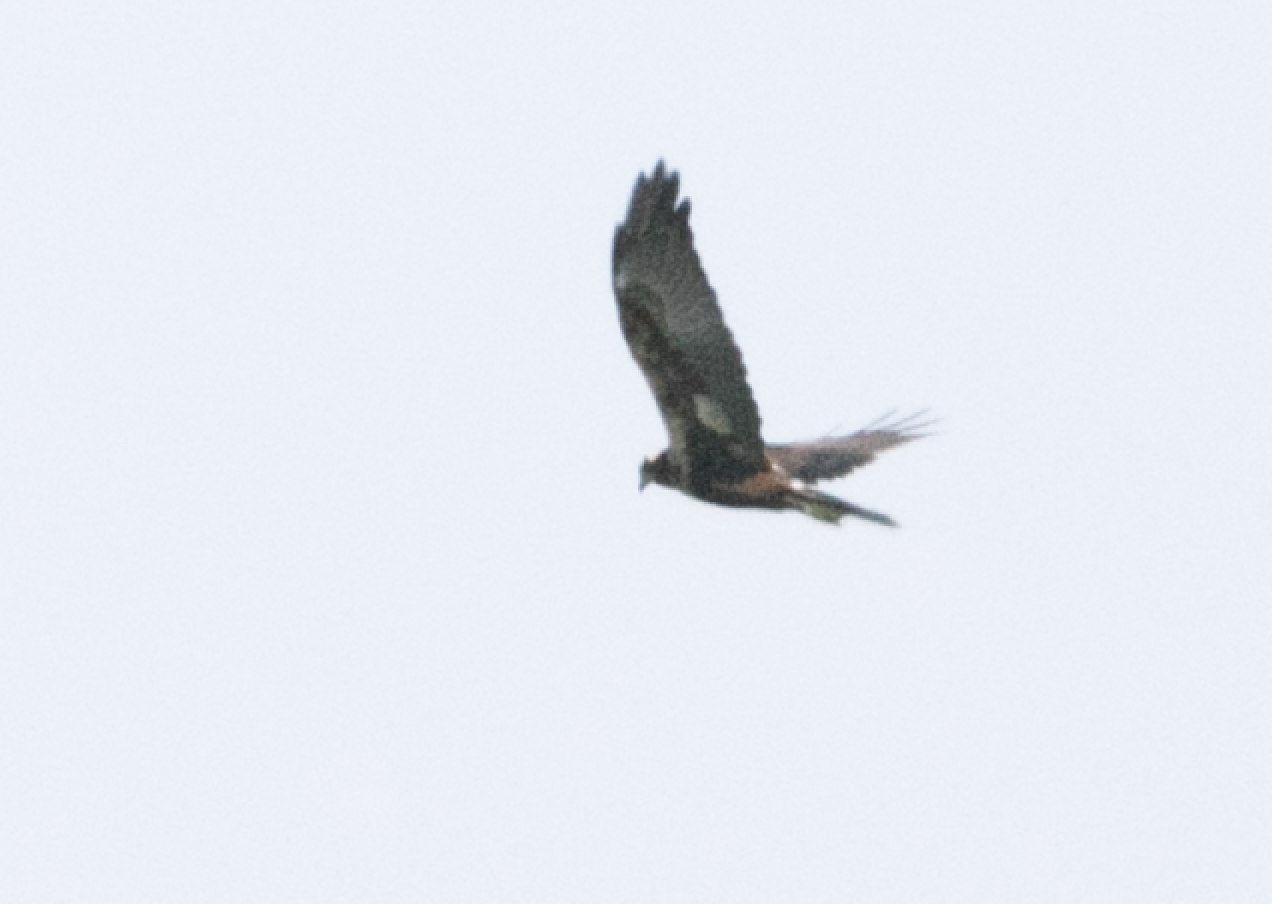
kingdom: Animalia
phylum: Chordata
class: Aves
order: Accipitriformes
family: Accipitridae
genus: Circus
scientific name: Circus aeruginosus
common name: Western marsh harrier
